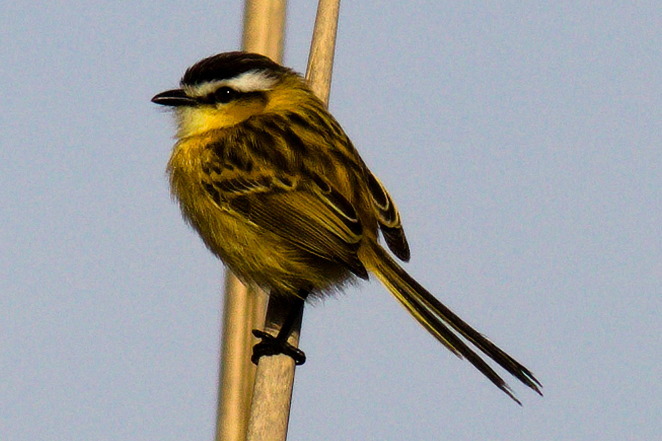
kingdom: Animalia
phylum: Chordata
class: Aves
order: Passeriformes
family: Tyrannidae
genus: Culicivora
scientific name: Culicivora caudacuta
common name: Sharp-tailed grass tyrant
